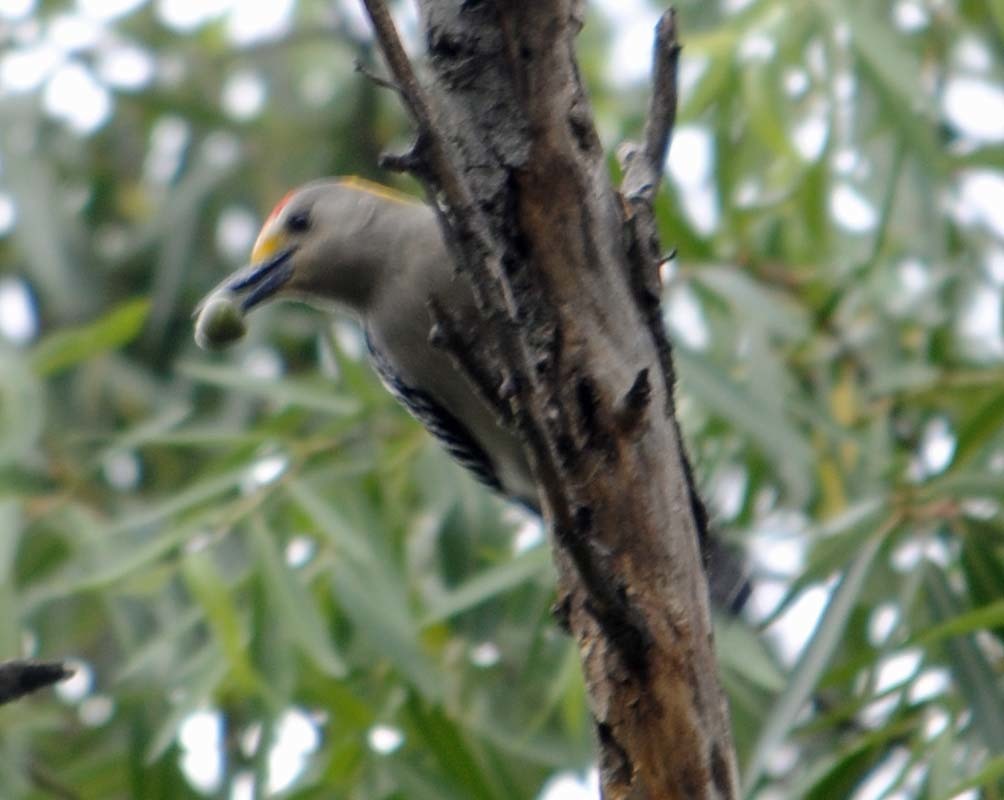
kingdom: Animalia
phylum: Chordata
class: Aves
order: Piciformes
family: Picidae
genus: Melanerpes
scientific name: Melanerpes aurifrons
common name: Golden-fronted woodpecker
